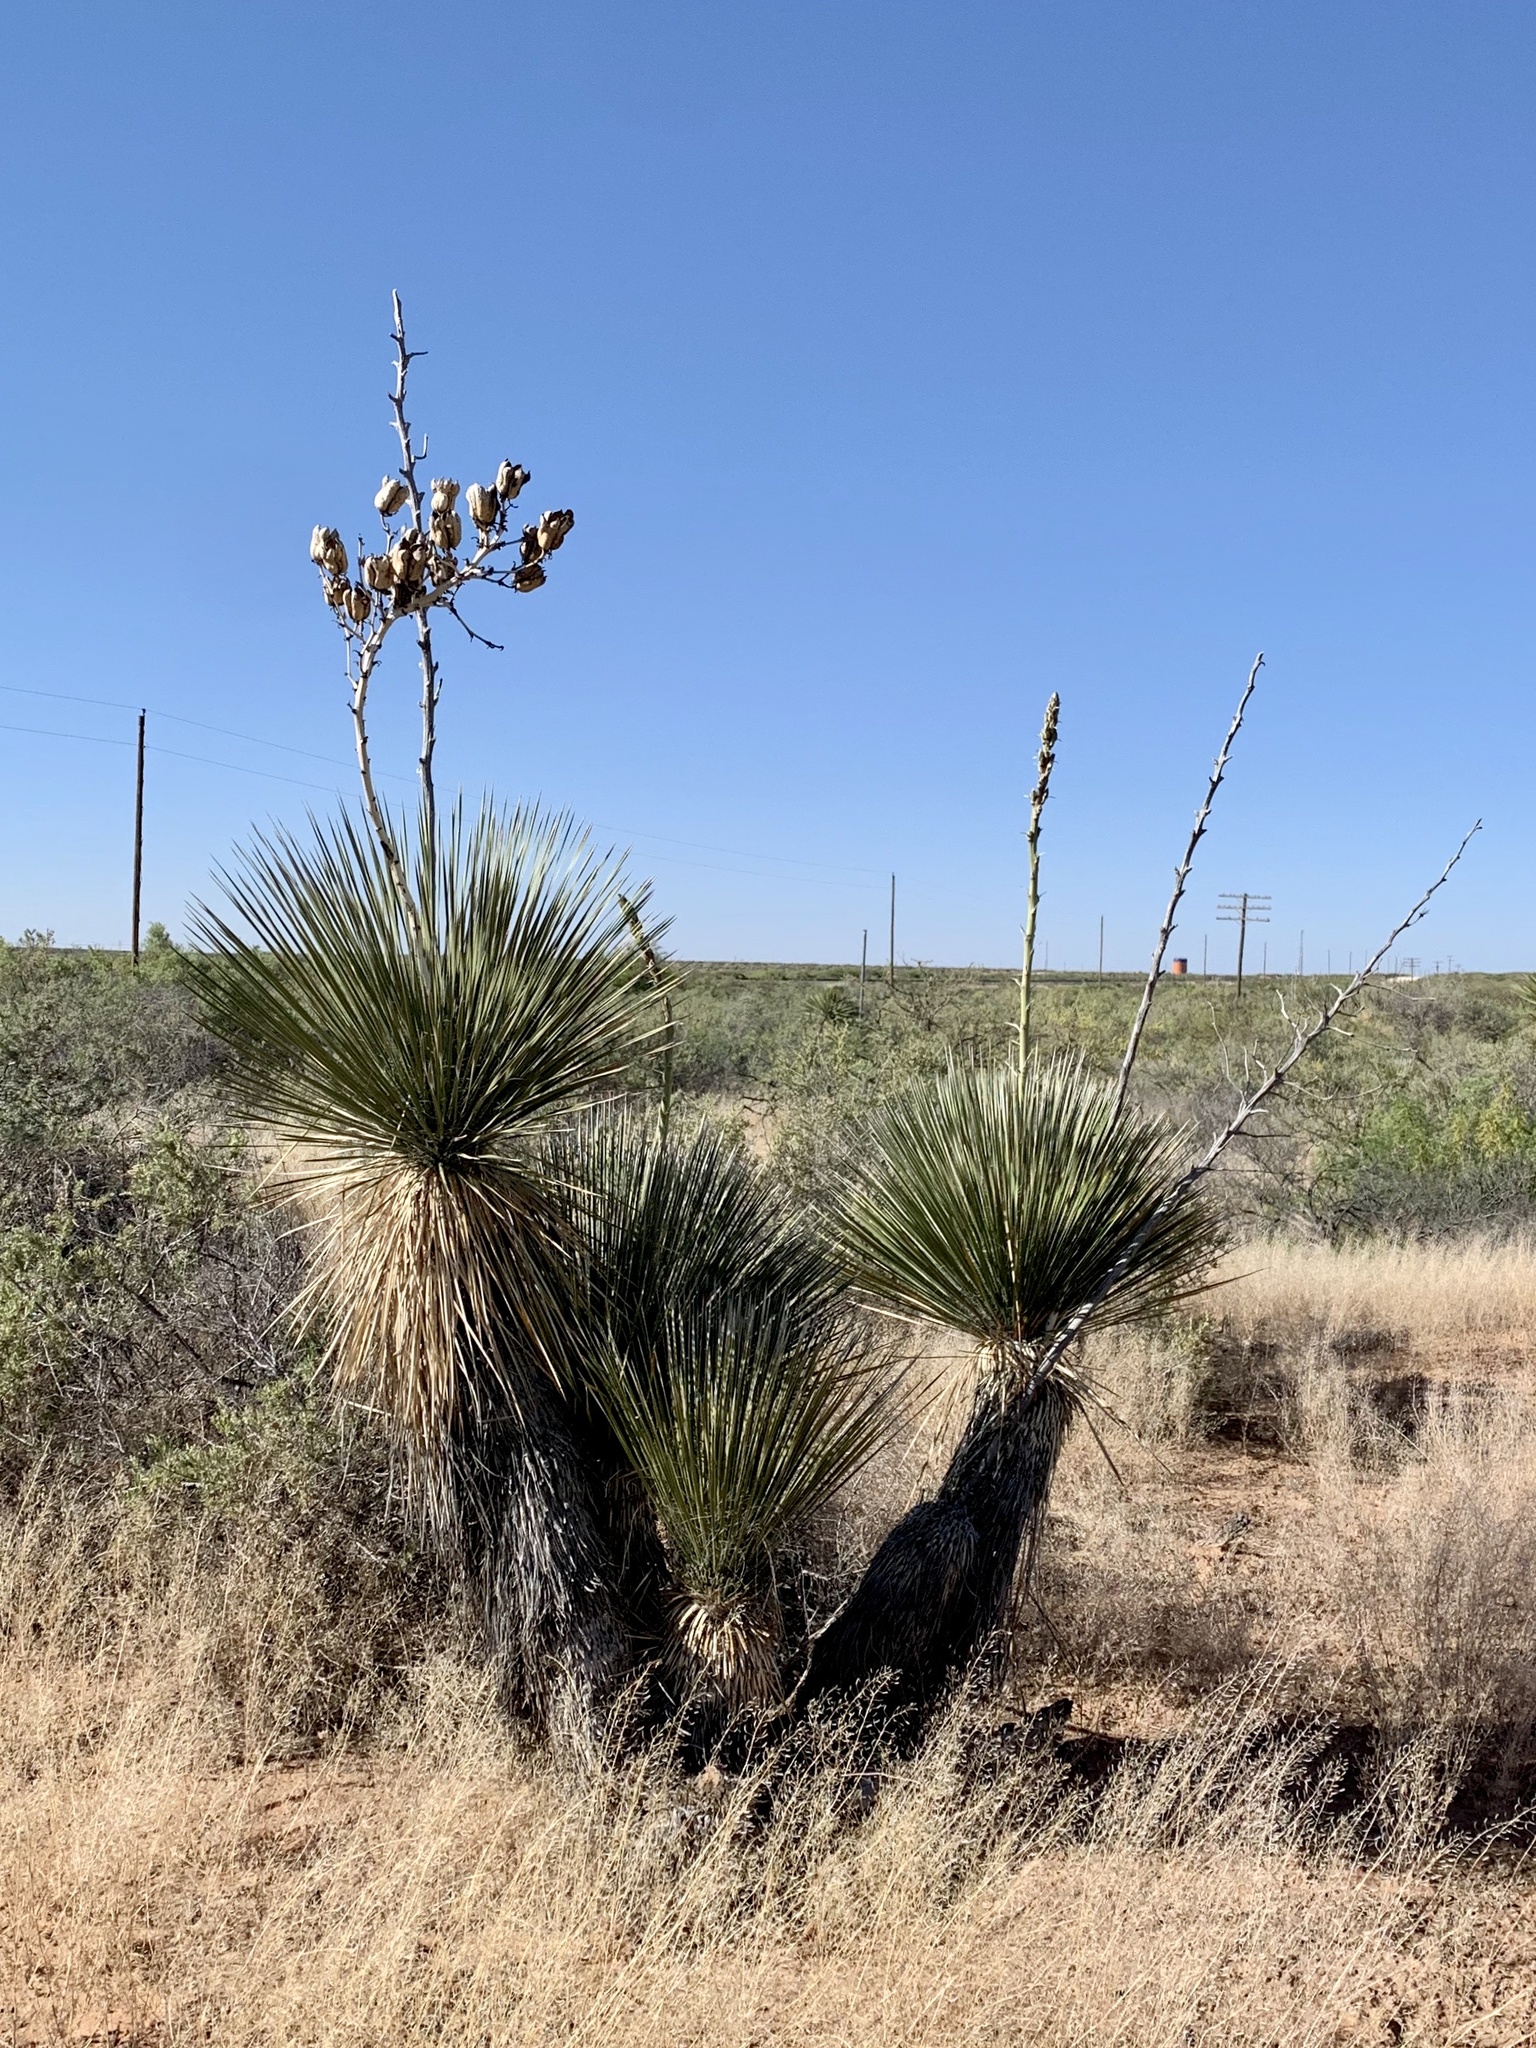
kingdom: Plantae
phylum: Tracheophyta
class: Liliopsida
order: Asparagales
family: Asparagaceae
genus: Yucca
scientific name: Yucca elata
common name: Palmella
